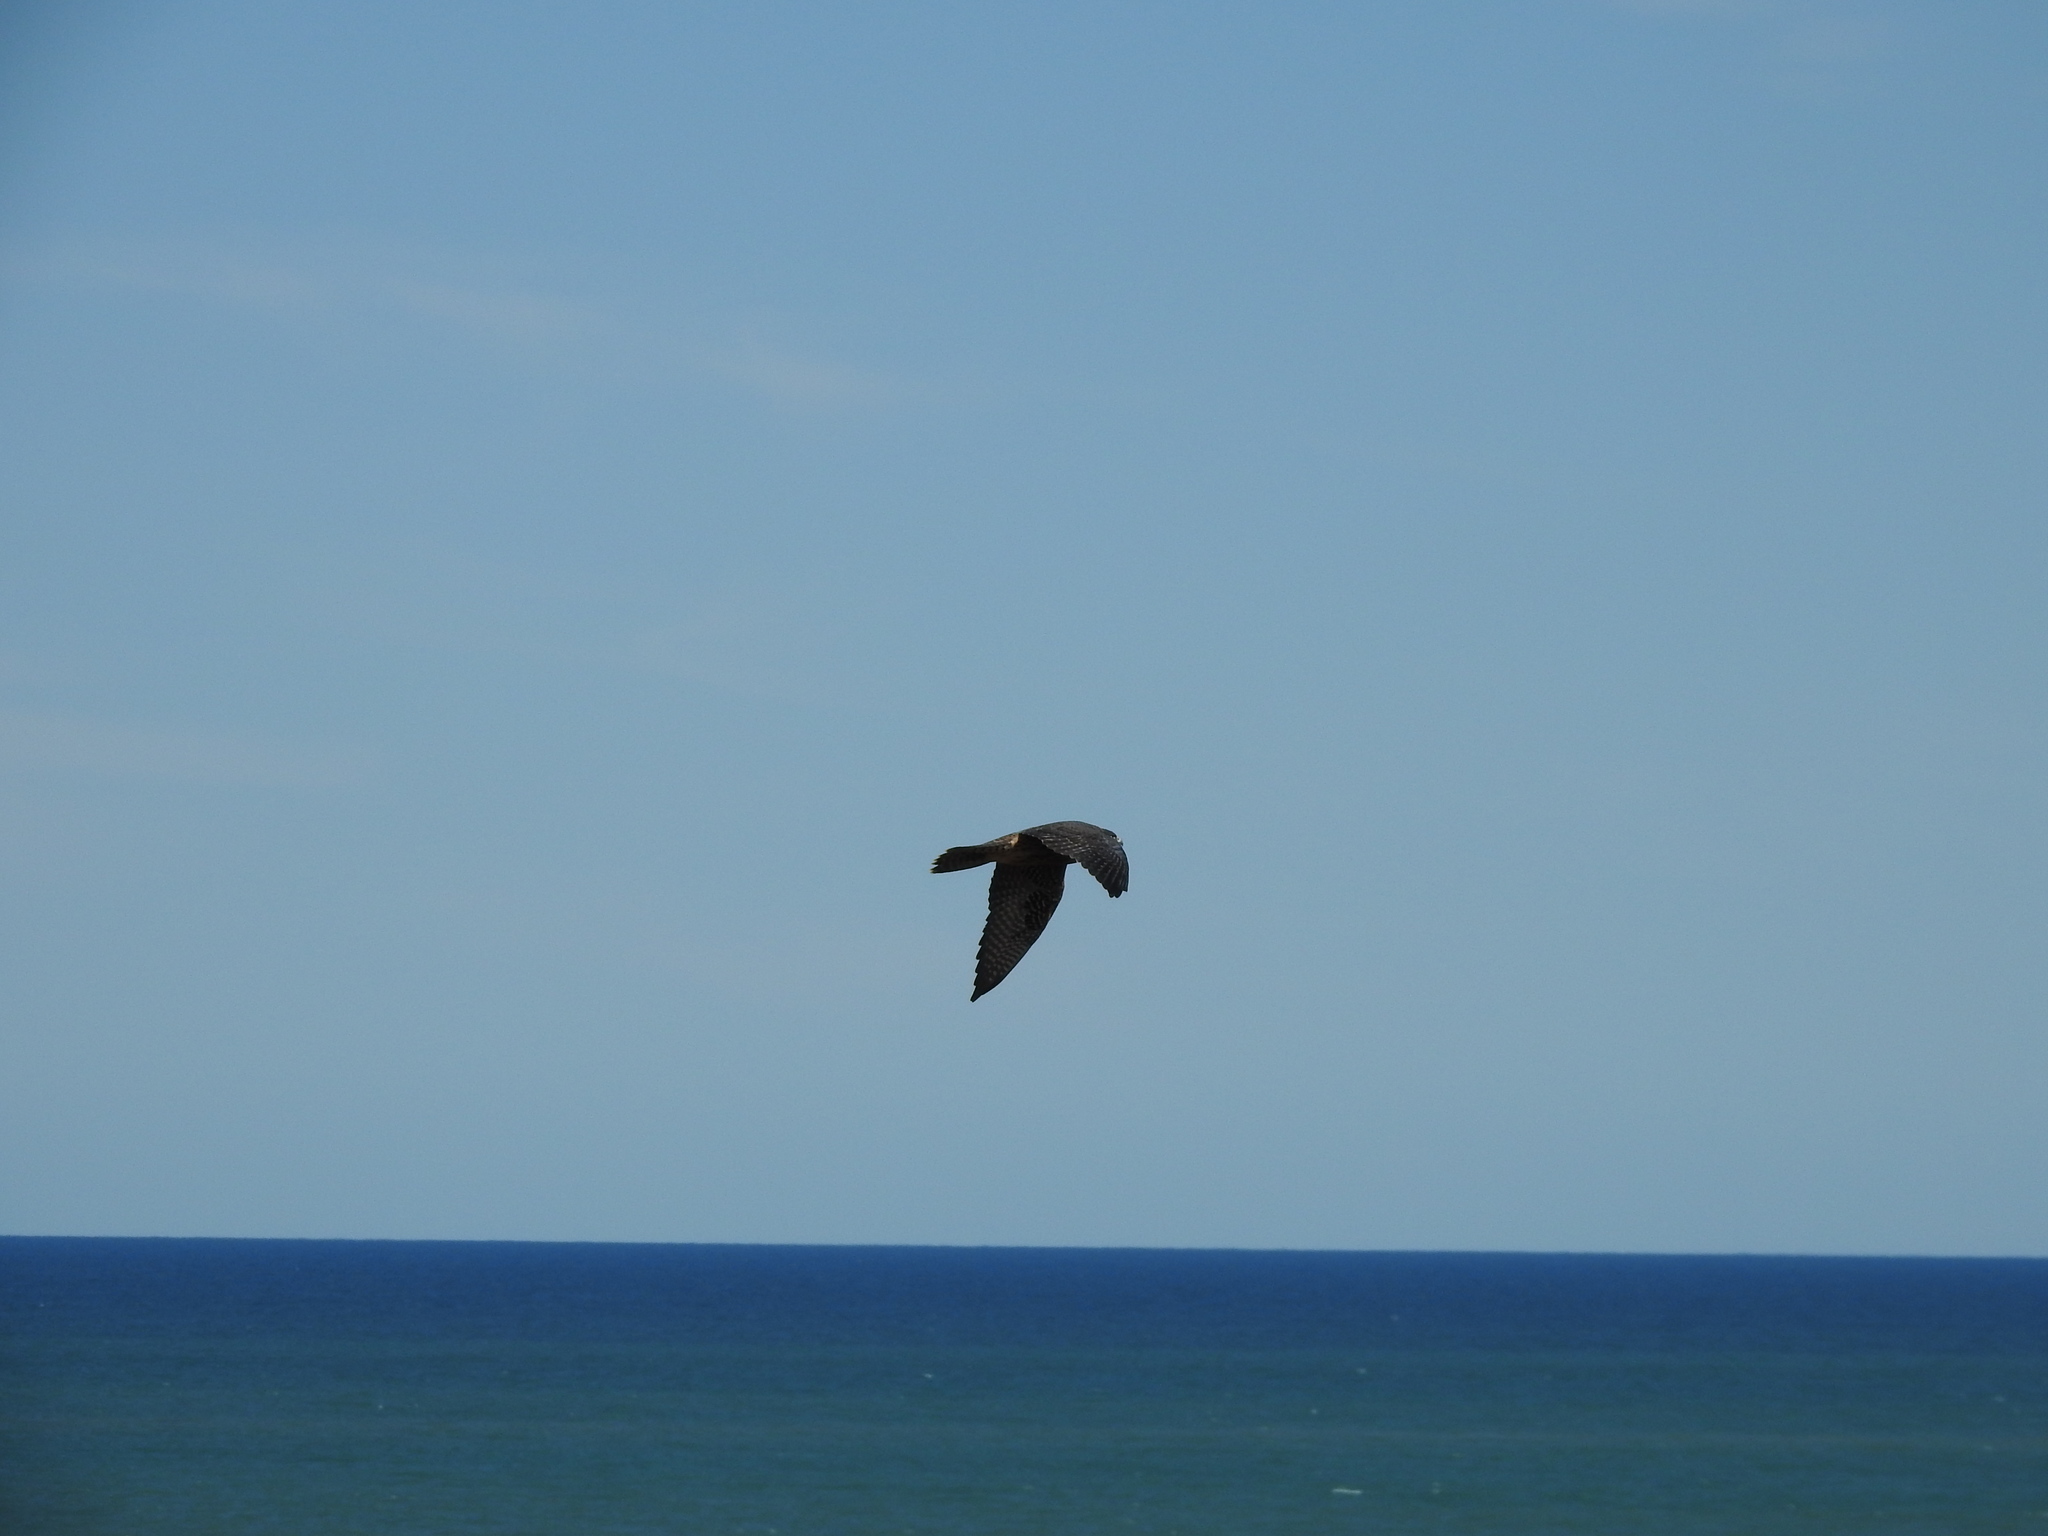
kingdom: Animalia
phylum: Chordata
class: Aves
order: Falconiformes
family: Falconidae
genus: Falco
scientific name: Falco peregrinus
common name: Peregrine falcon
